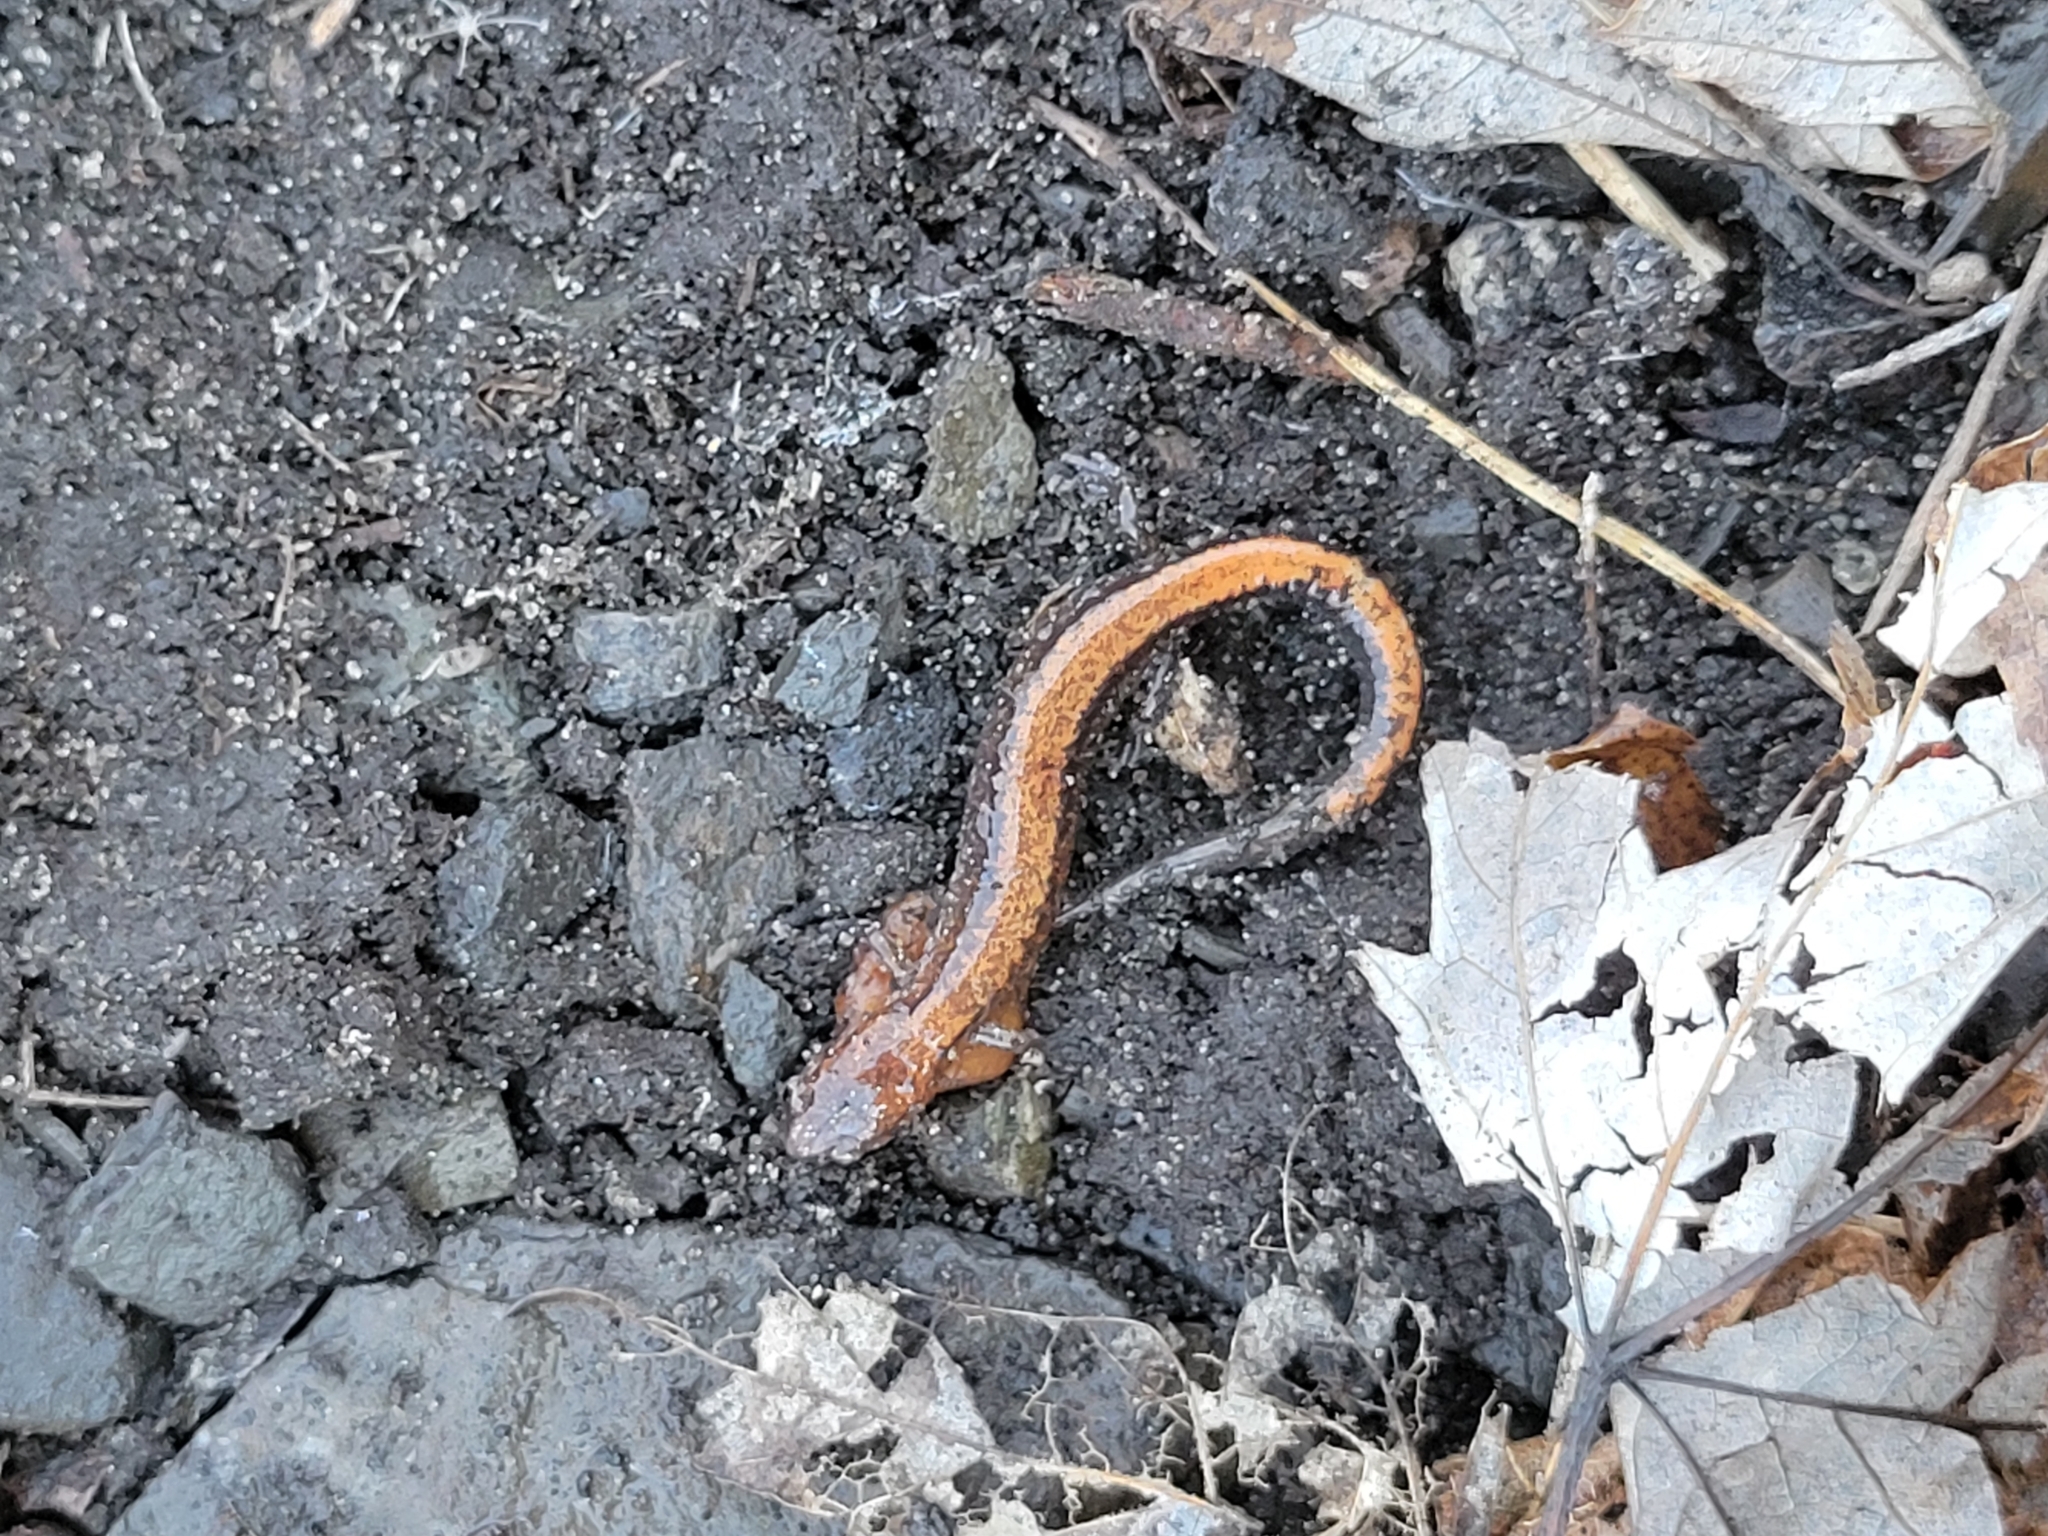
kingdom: Animalia
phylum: Chordata
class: Amphibia
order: Caudata
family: Plethodontidae
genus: Plethodon
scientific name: Plethodon cinereus
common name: Redback salamander
